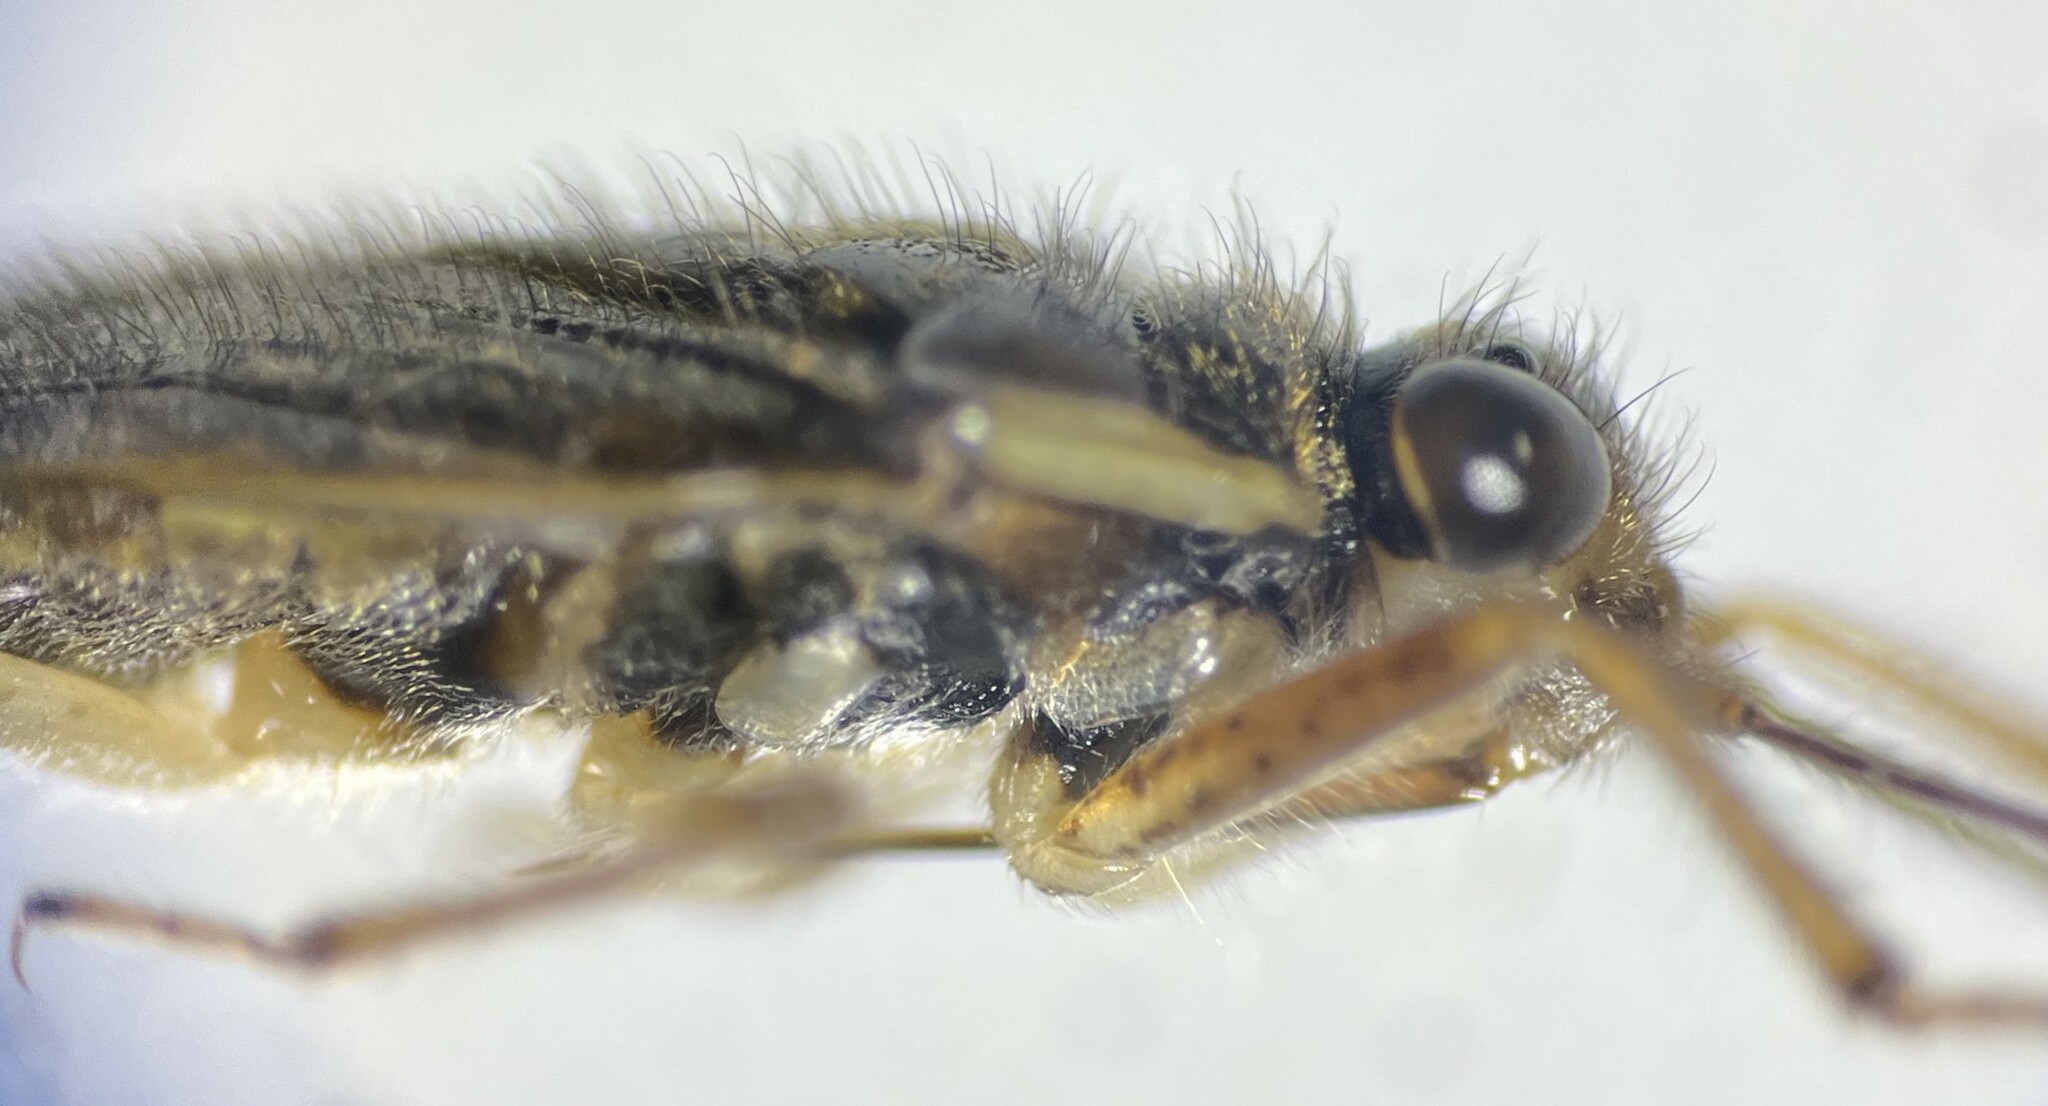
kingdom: Animalia
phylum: Arthropoda
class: Insecta
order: Hemiptera
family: Saldidae
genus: Pentacora
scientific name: Pentacora hirta
